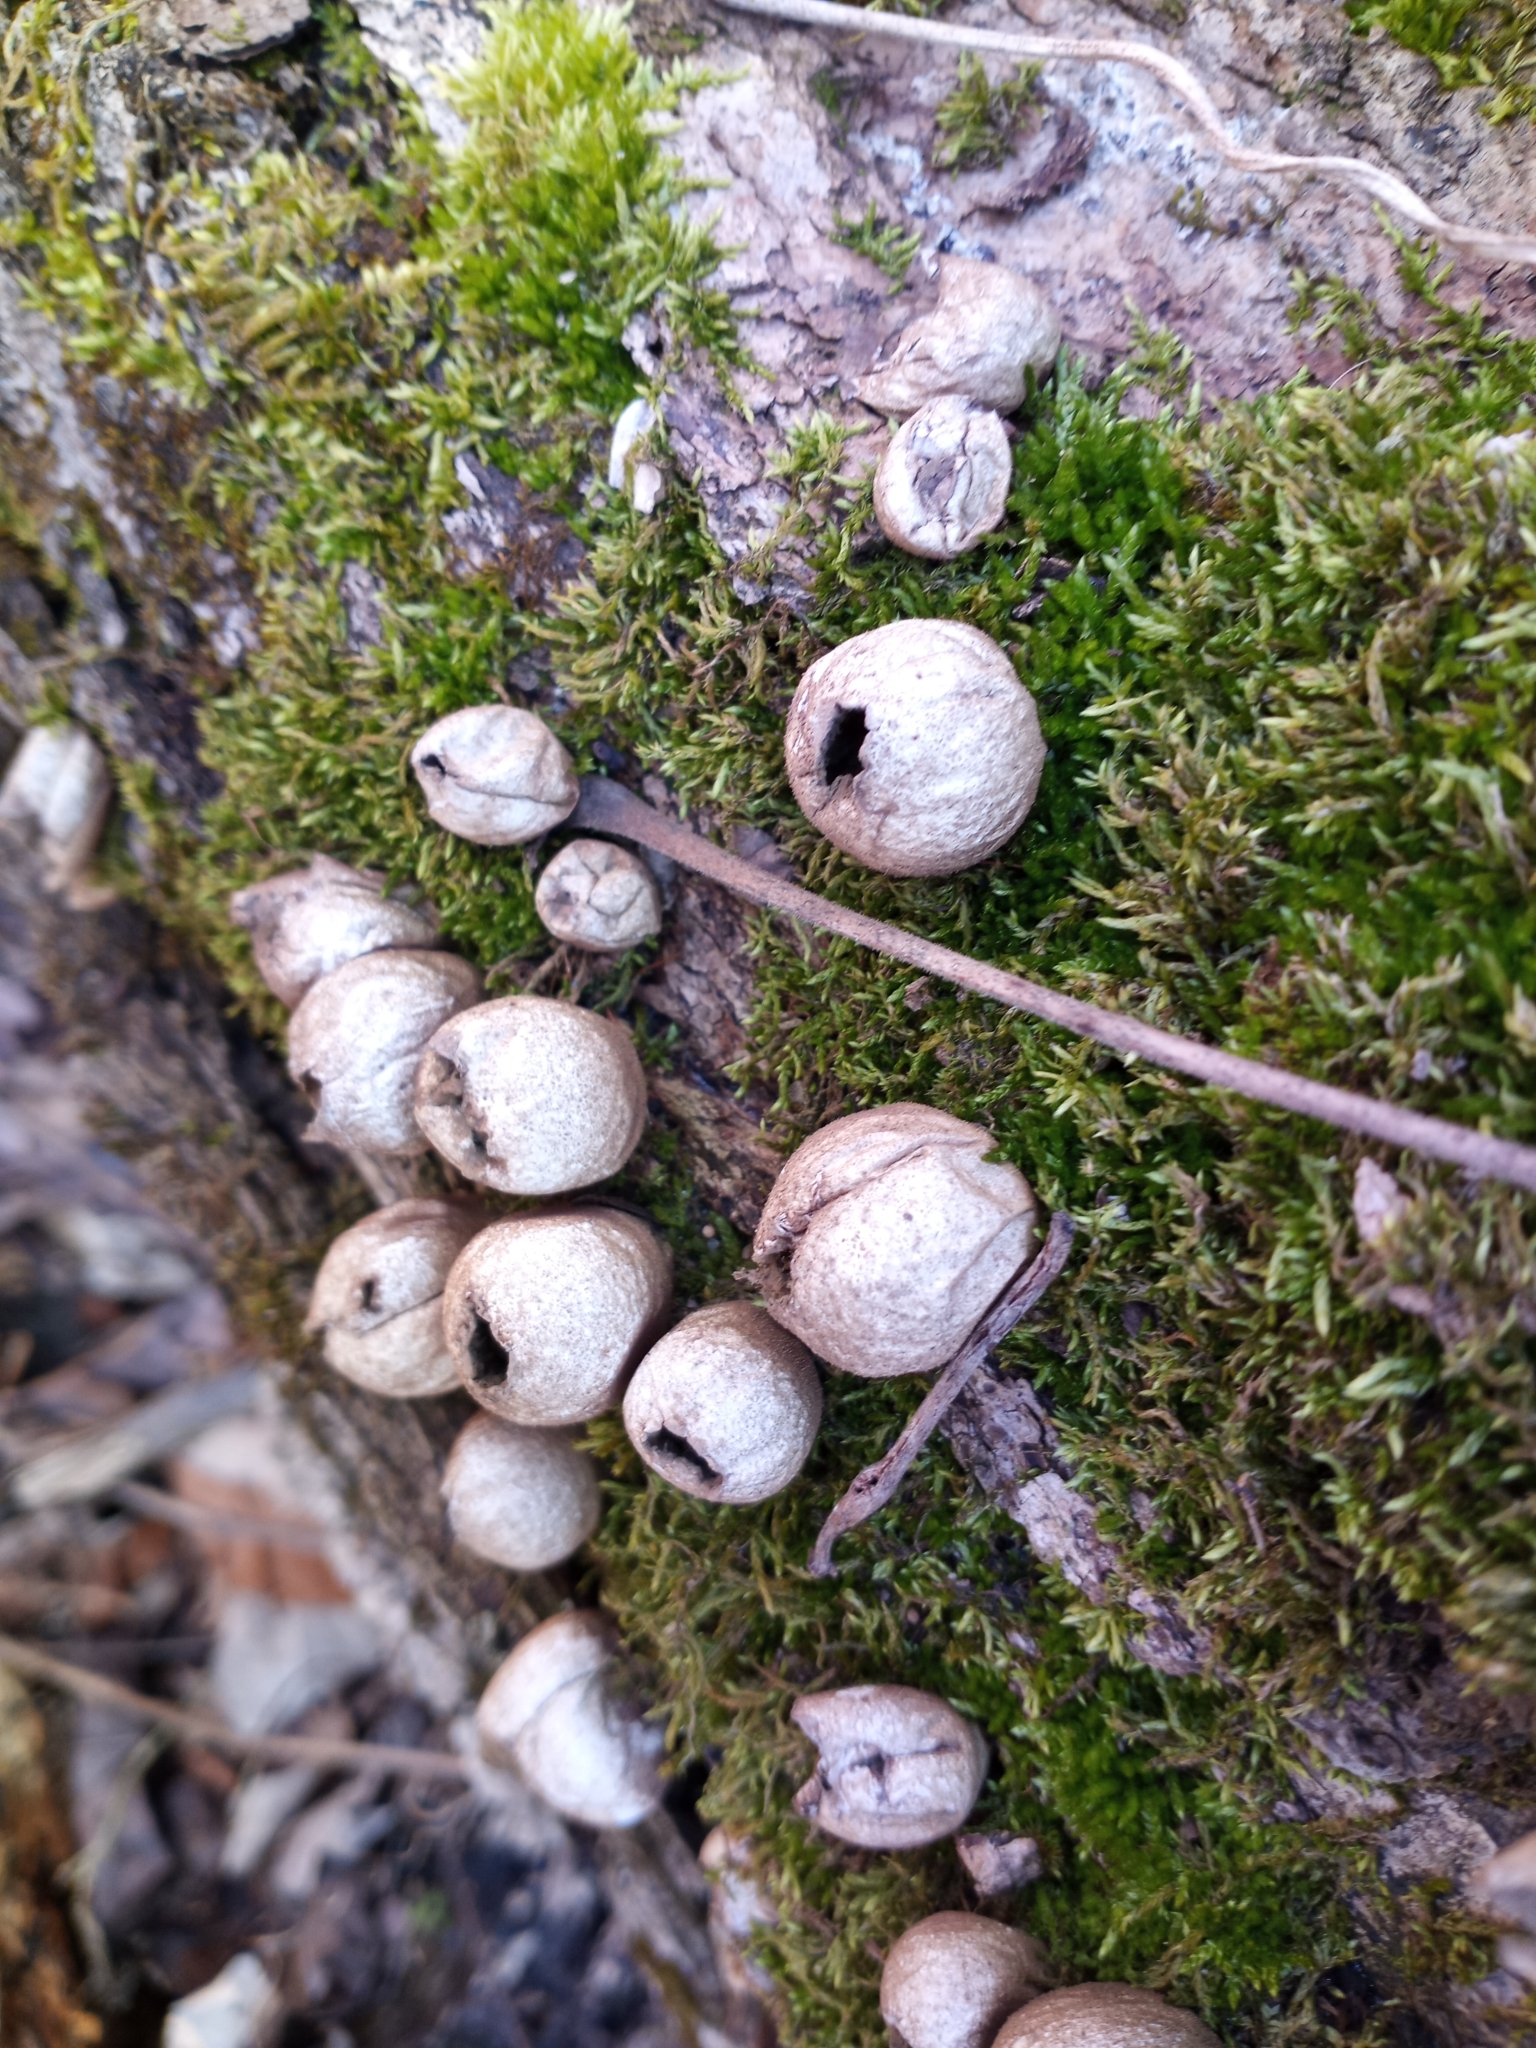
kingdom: Fungi
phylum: Basidiomycota
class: Agaricomycetes
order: Agaricales
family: Lycoperdaceae
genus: Apioperdon
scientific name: Apioperdon pyriforme
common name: Pear-shaped puffball
